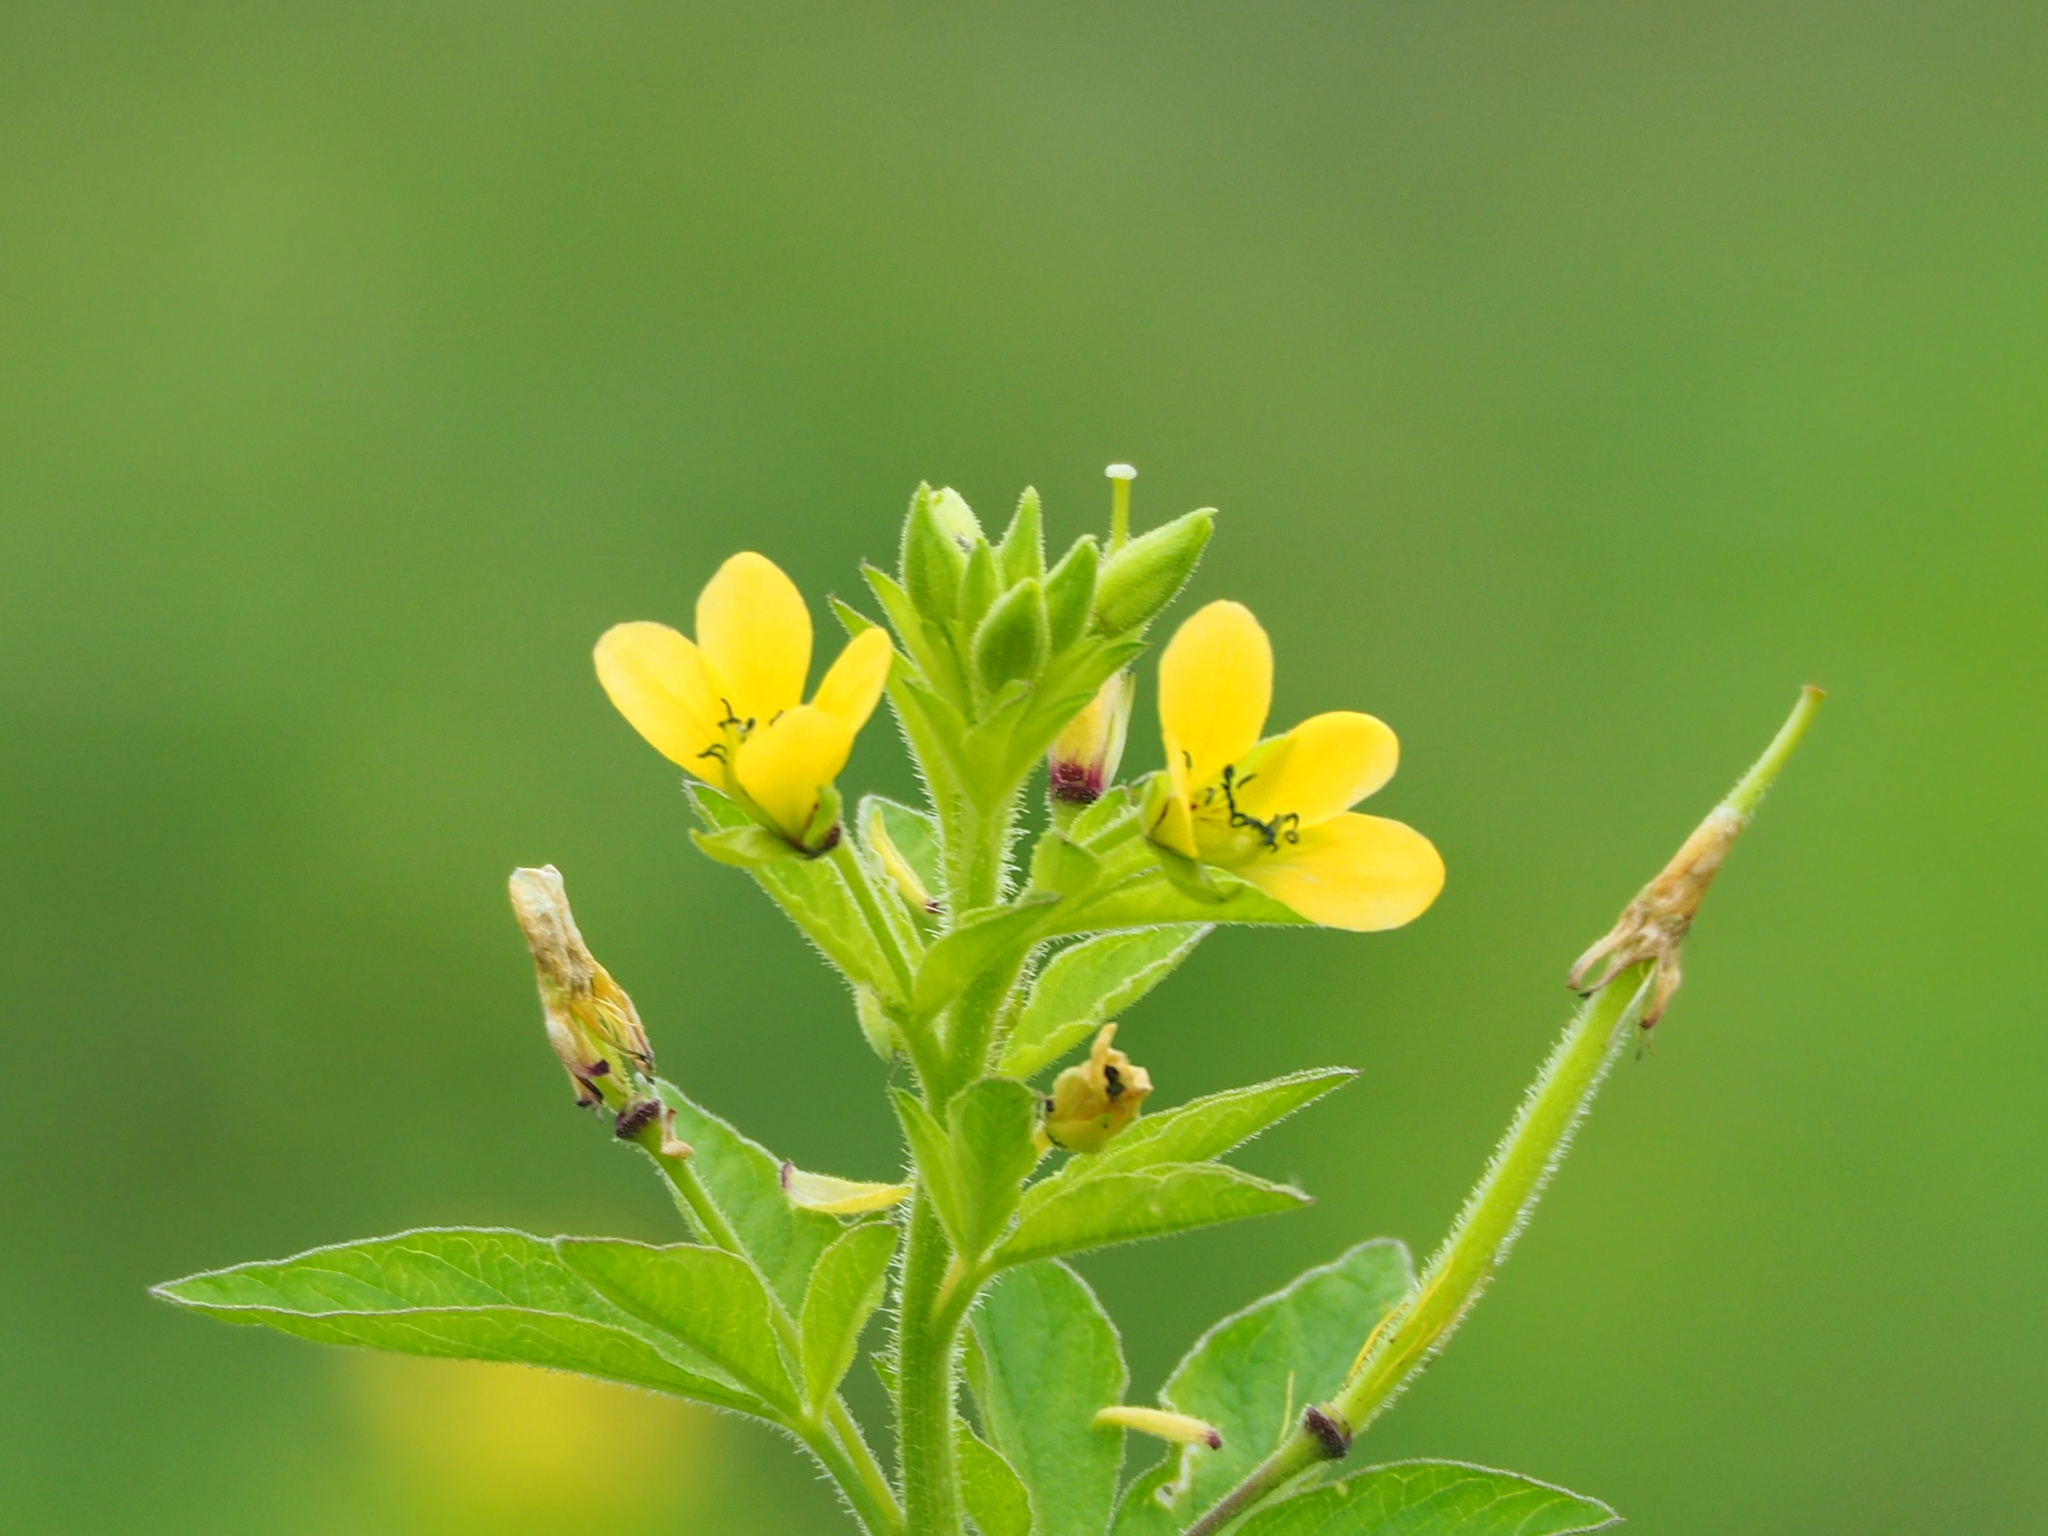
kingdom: Plantae
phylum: Tracheophyta
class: Magnoliopsida
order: Brassicales
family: Cleomaceae
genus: Arivela
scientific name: Arivela viscosa
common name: Asian spiderflower
